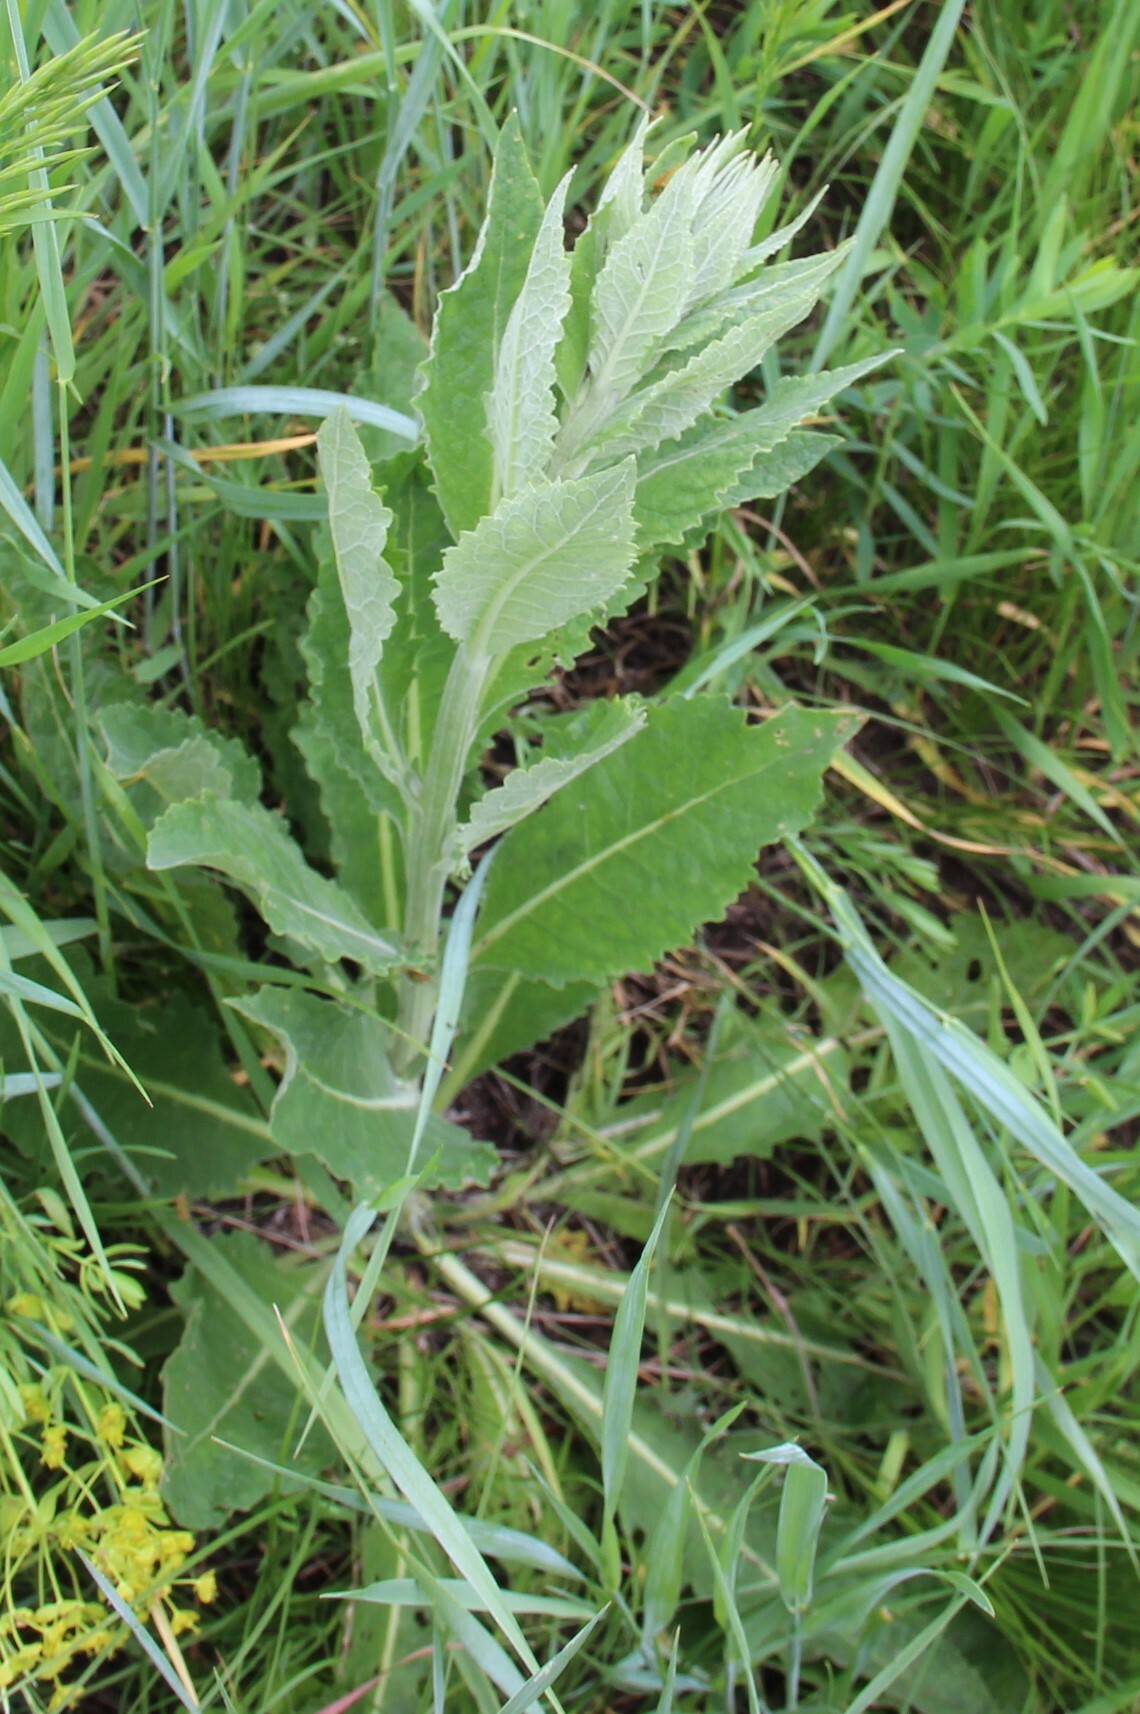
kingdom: Plantae
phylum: Tracheophyta
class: Magnoliopsida
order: Lamiales
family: Scrophulariaceae
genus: Verbascum
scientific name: Verbascum lychnitis
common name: White mullein
